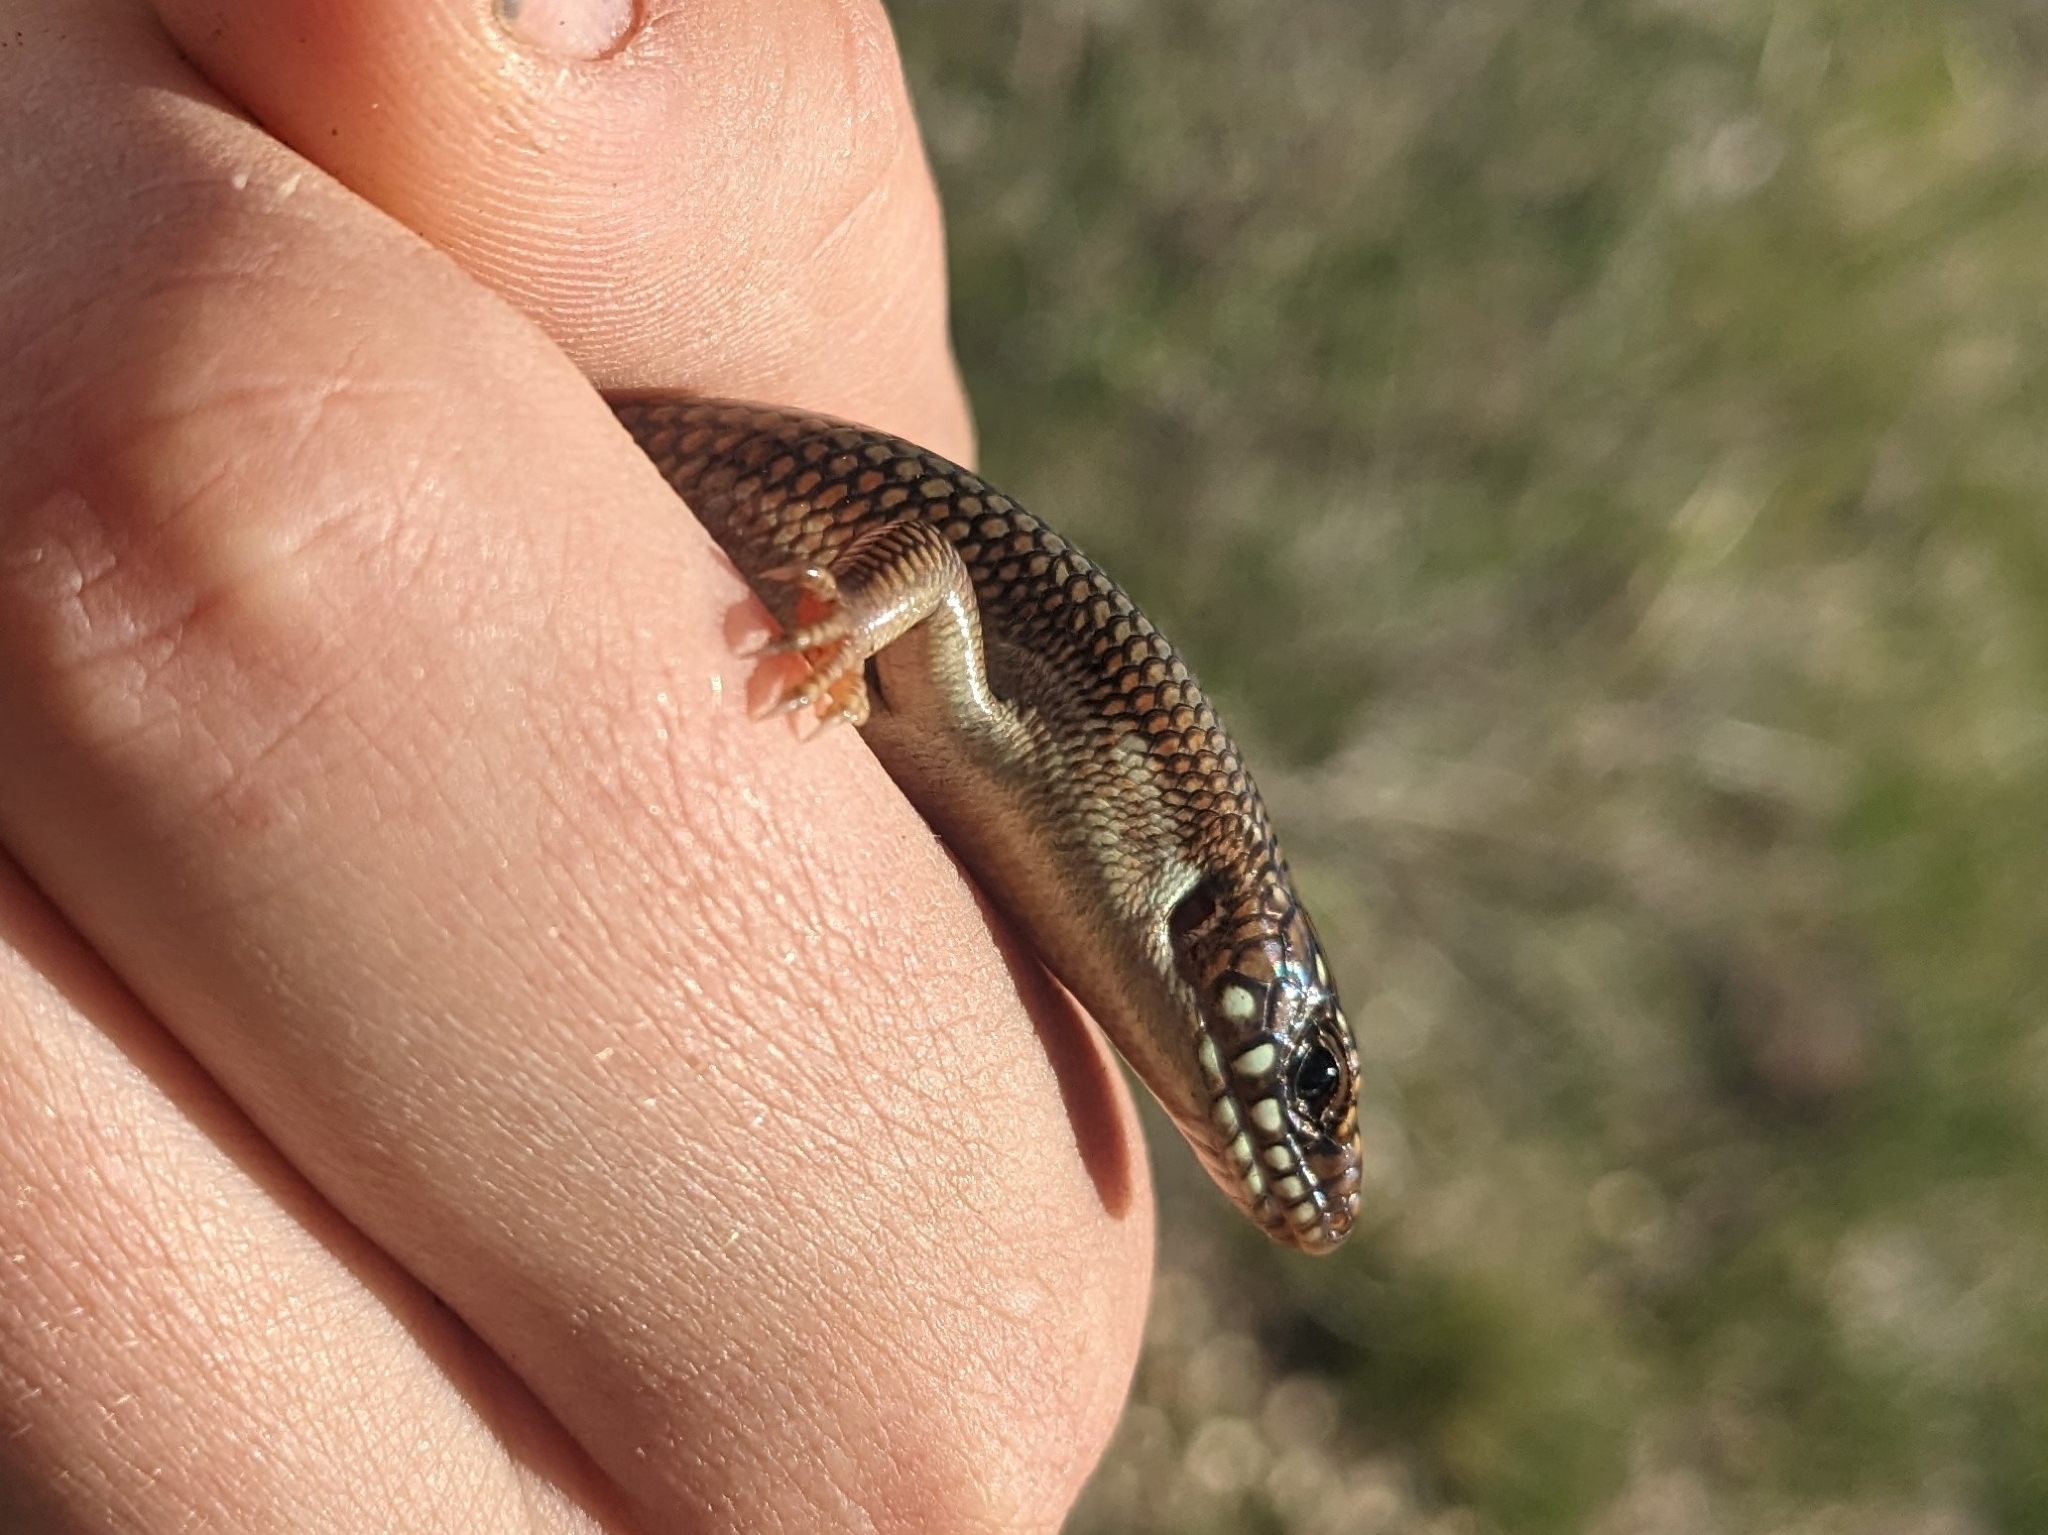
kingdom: Animalia
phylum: Chordata
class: Squamata
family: Scincidae
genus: Plestiodon
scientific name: Plestiodon obsoletus
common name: Great plains skink
